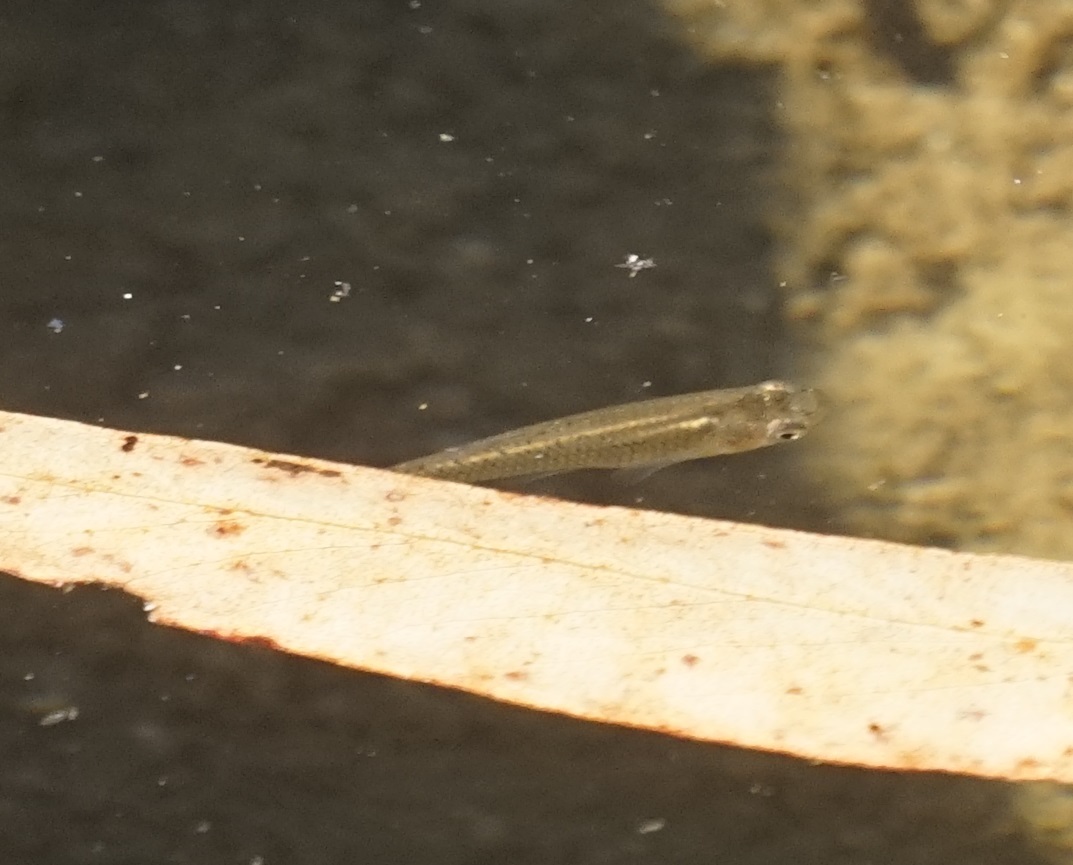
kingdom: Animalia
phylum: Chordata
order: Cyprinodontiformes
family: Poeciliidae
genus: Gambusia
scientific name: Gambusia holbrooki
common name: Eastern mosquitofish
